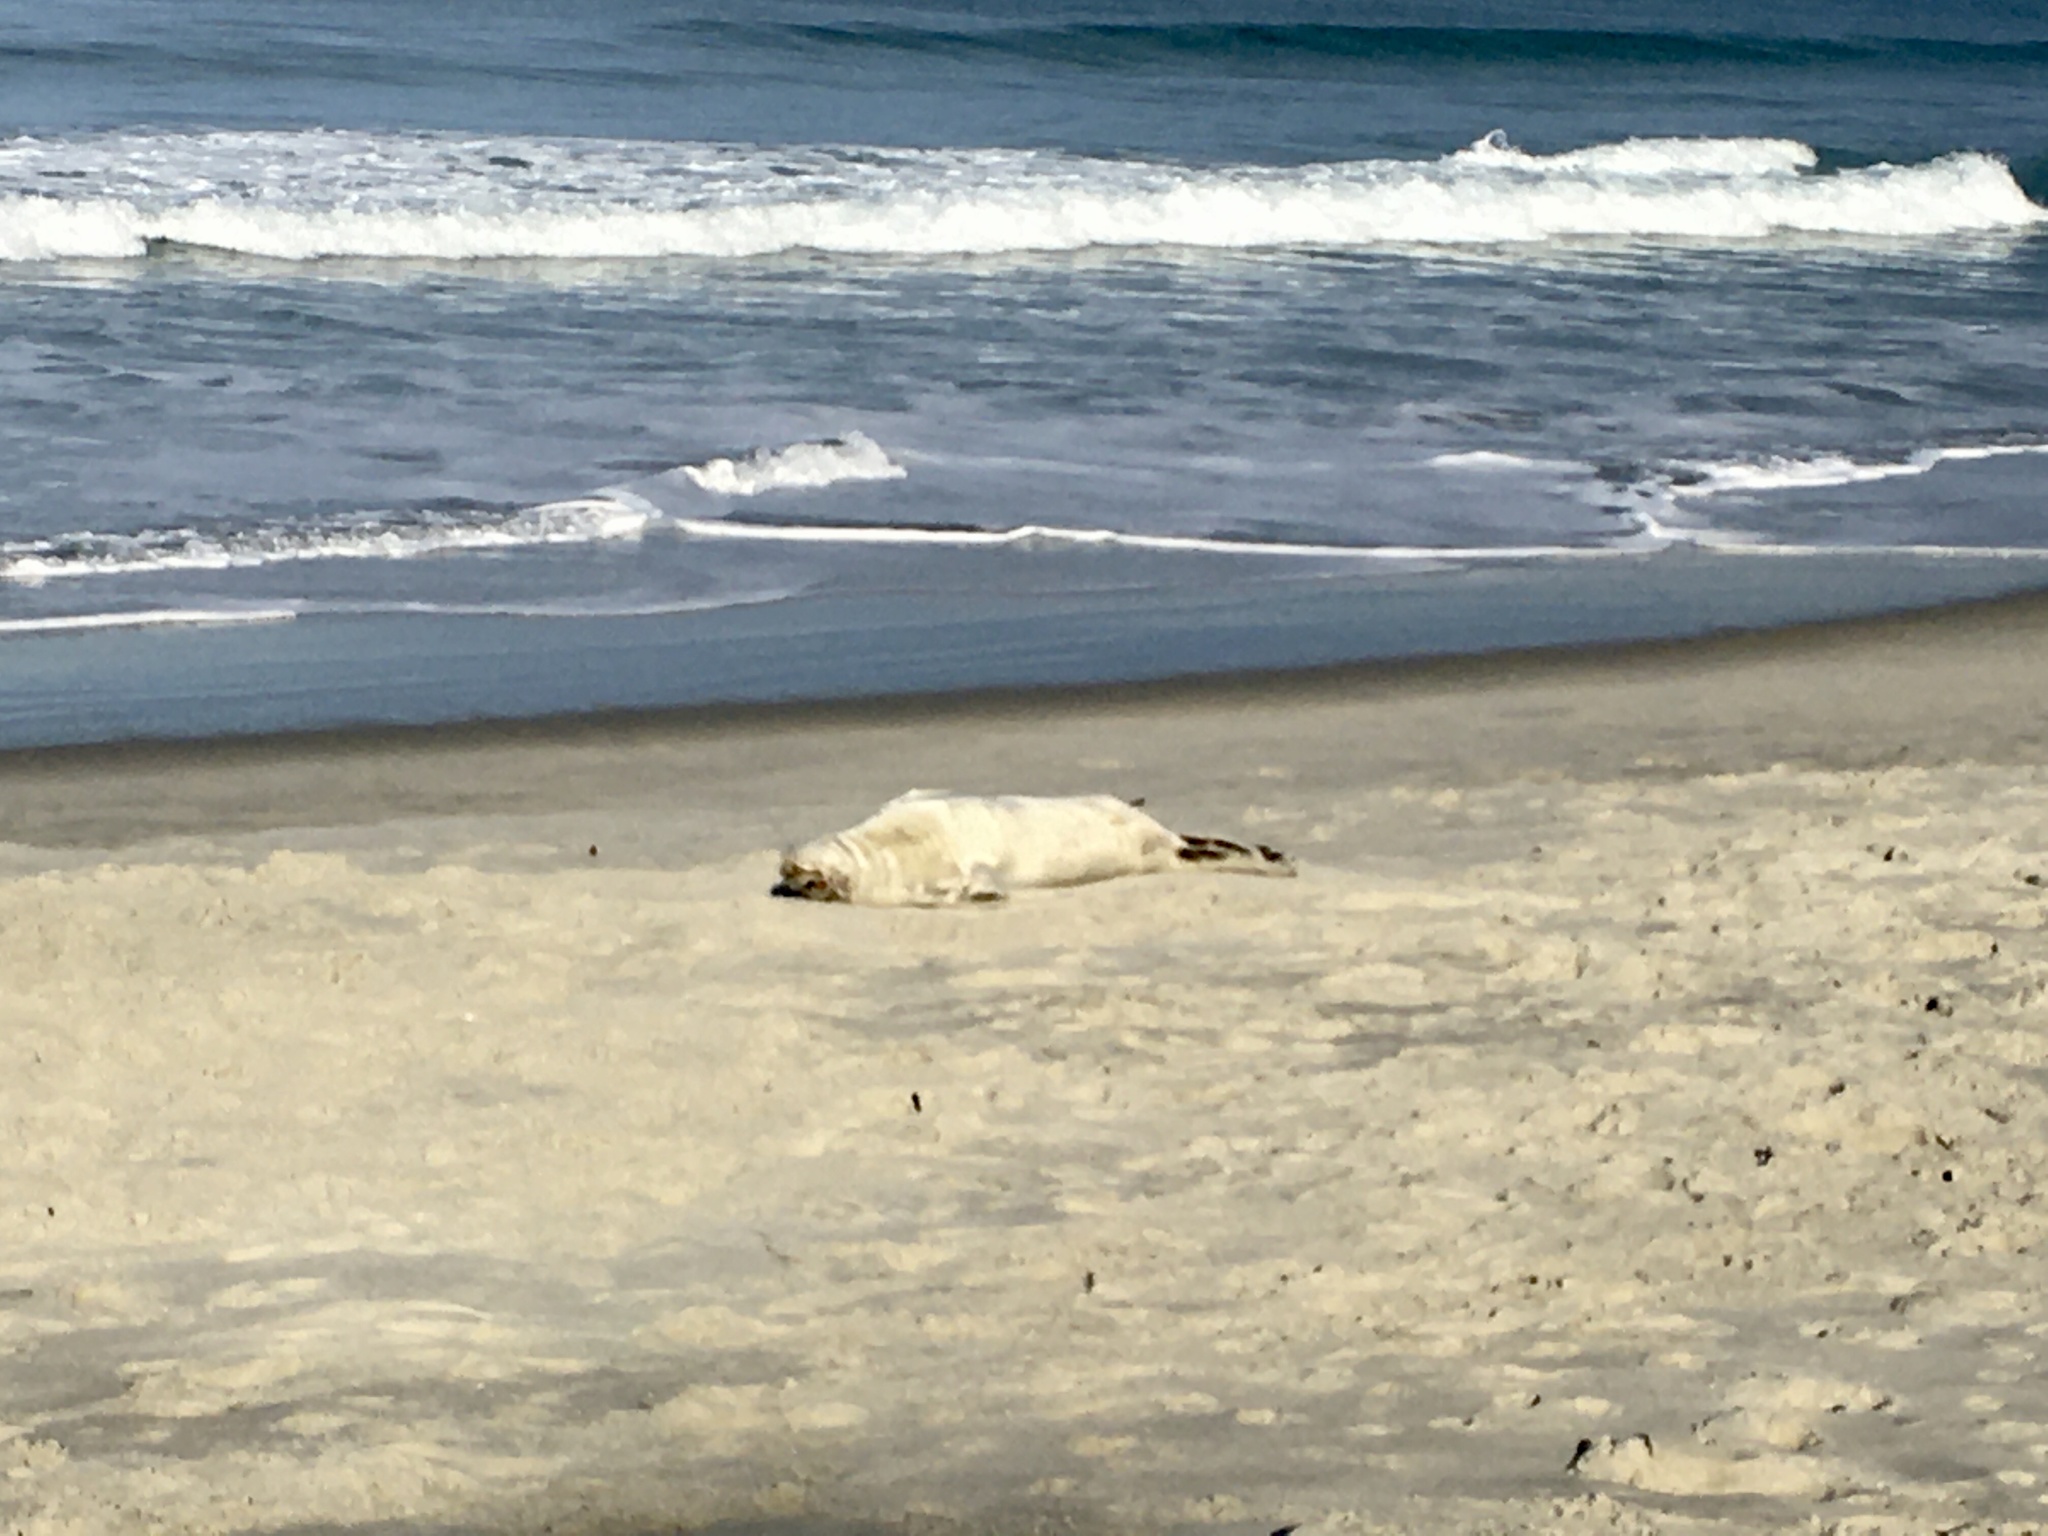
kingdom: Animalia
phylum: Chordata
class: Mammalia
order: Carnivora
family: Phocidae
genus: Leptonychotes
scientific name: Leptonychotes weddellii
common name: Weddell seal
